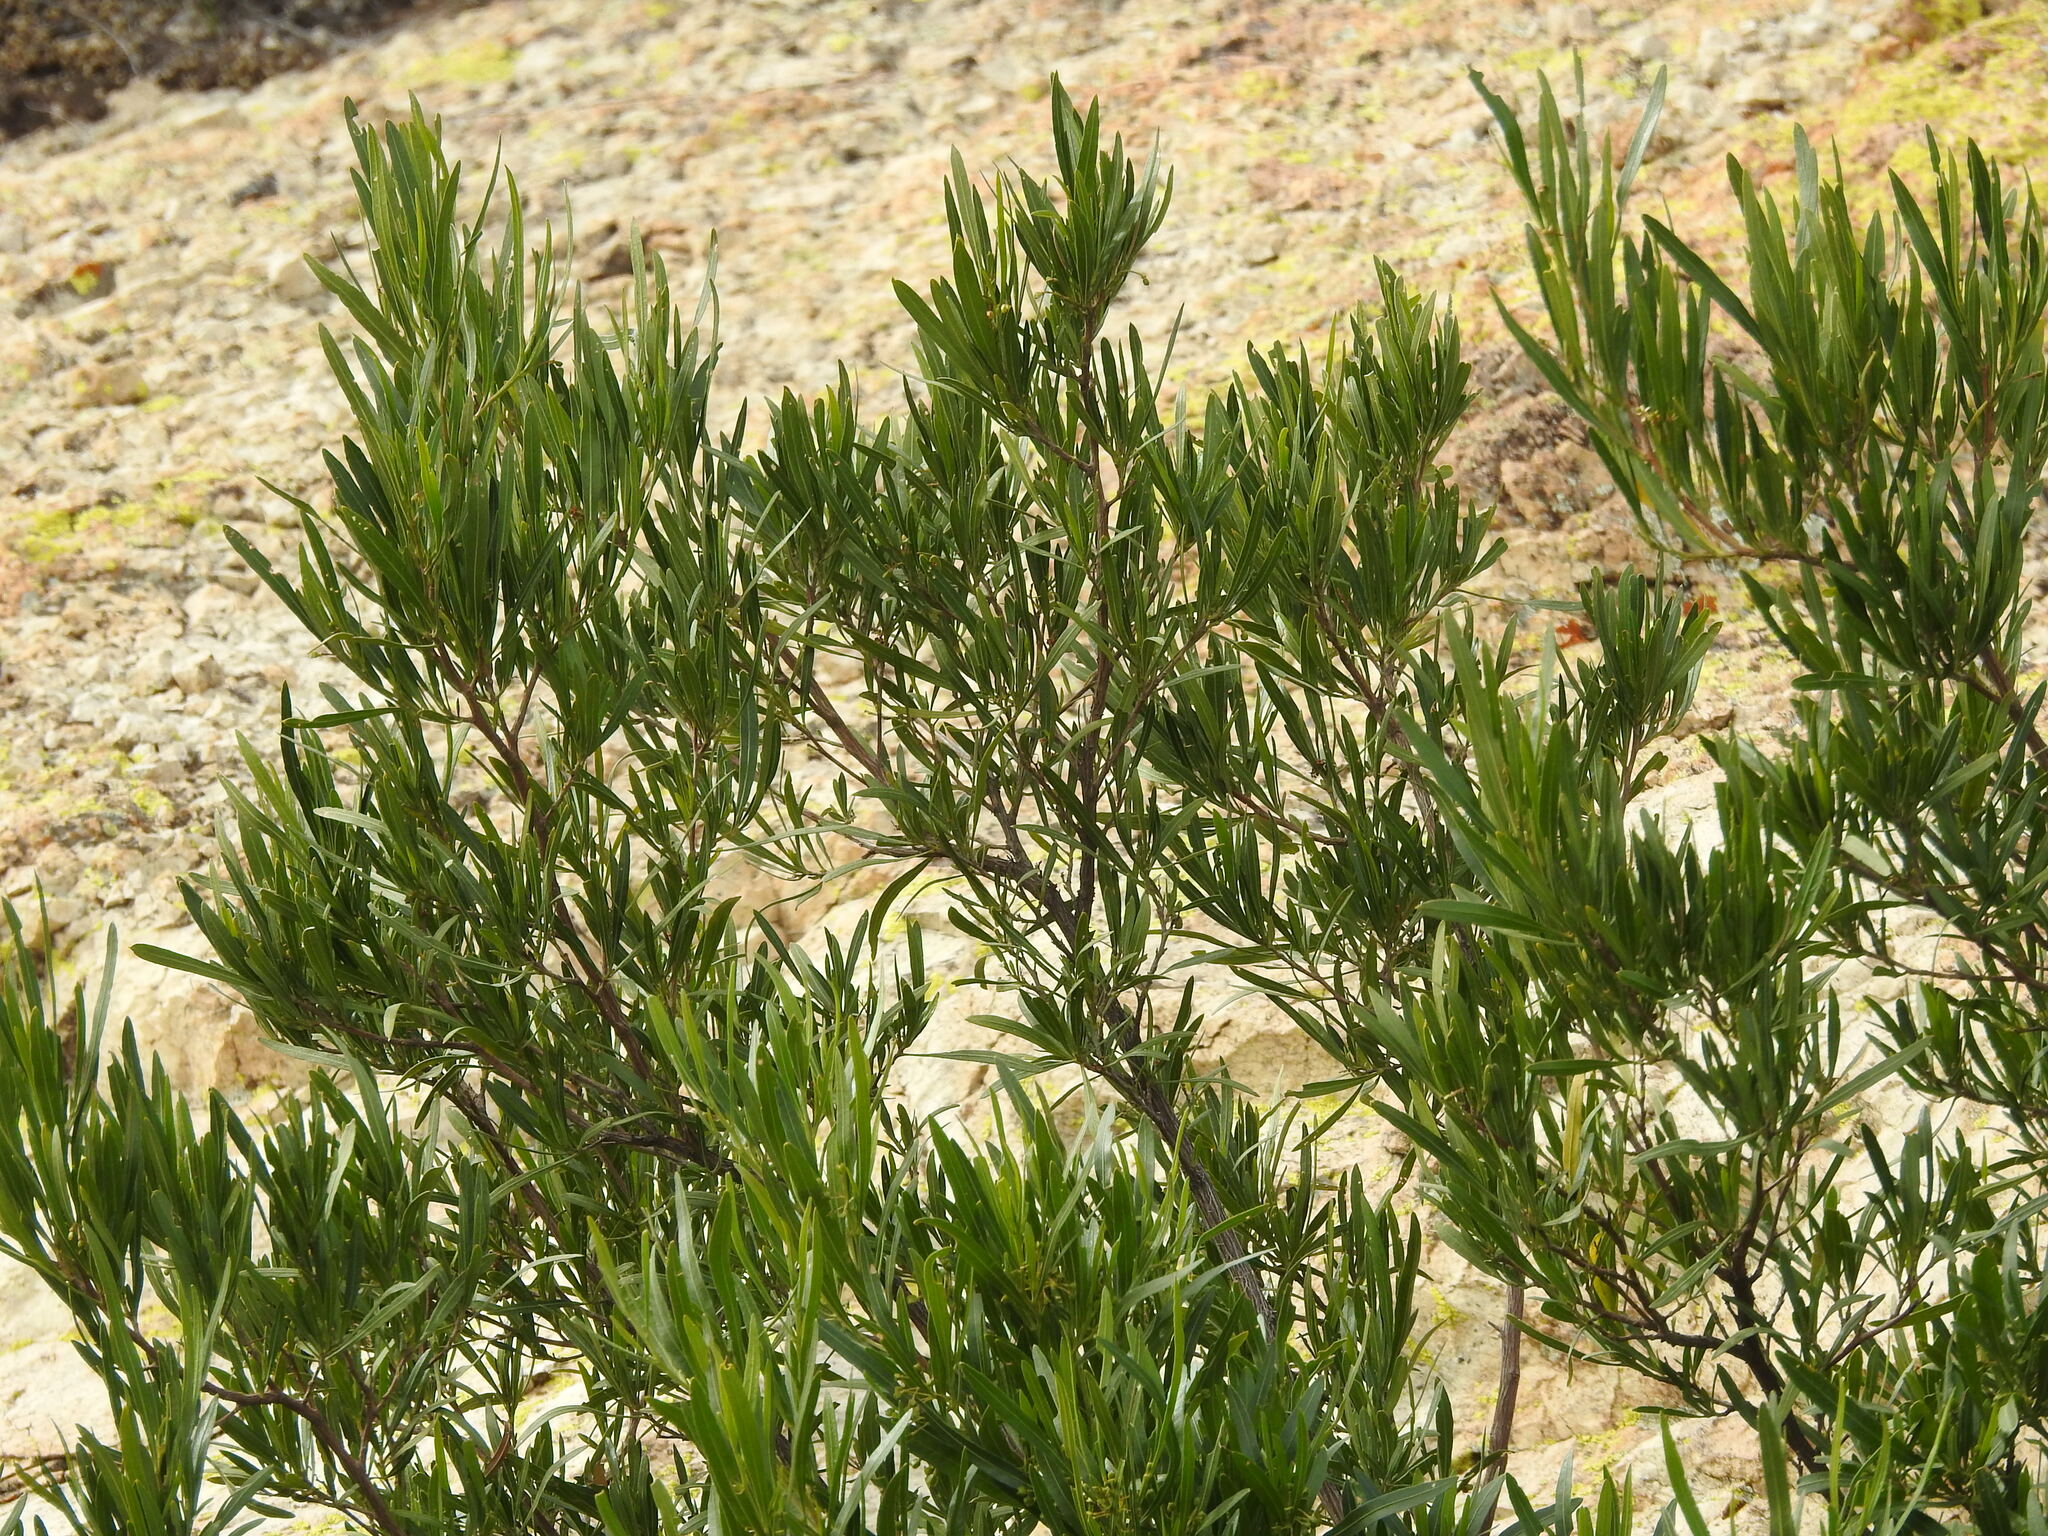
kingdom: Plantae
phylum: Tracheophyta
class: Magnoliopsida
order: Sapindales
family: Sapindaceae
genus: Dodonaea
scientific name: Dodonaea viscosa
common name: Hopbush
